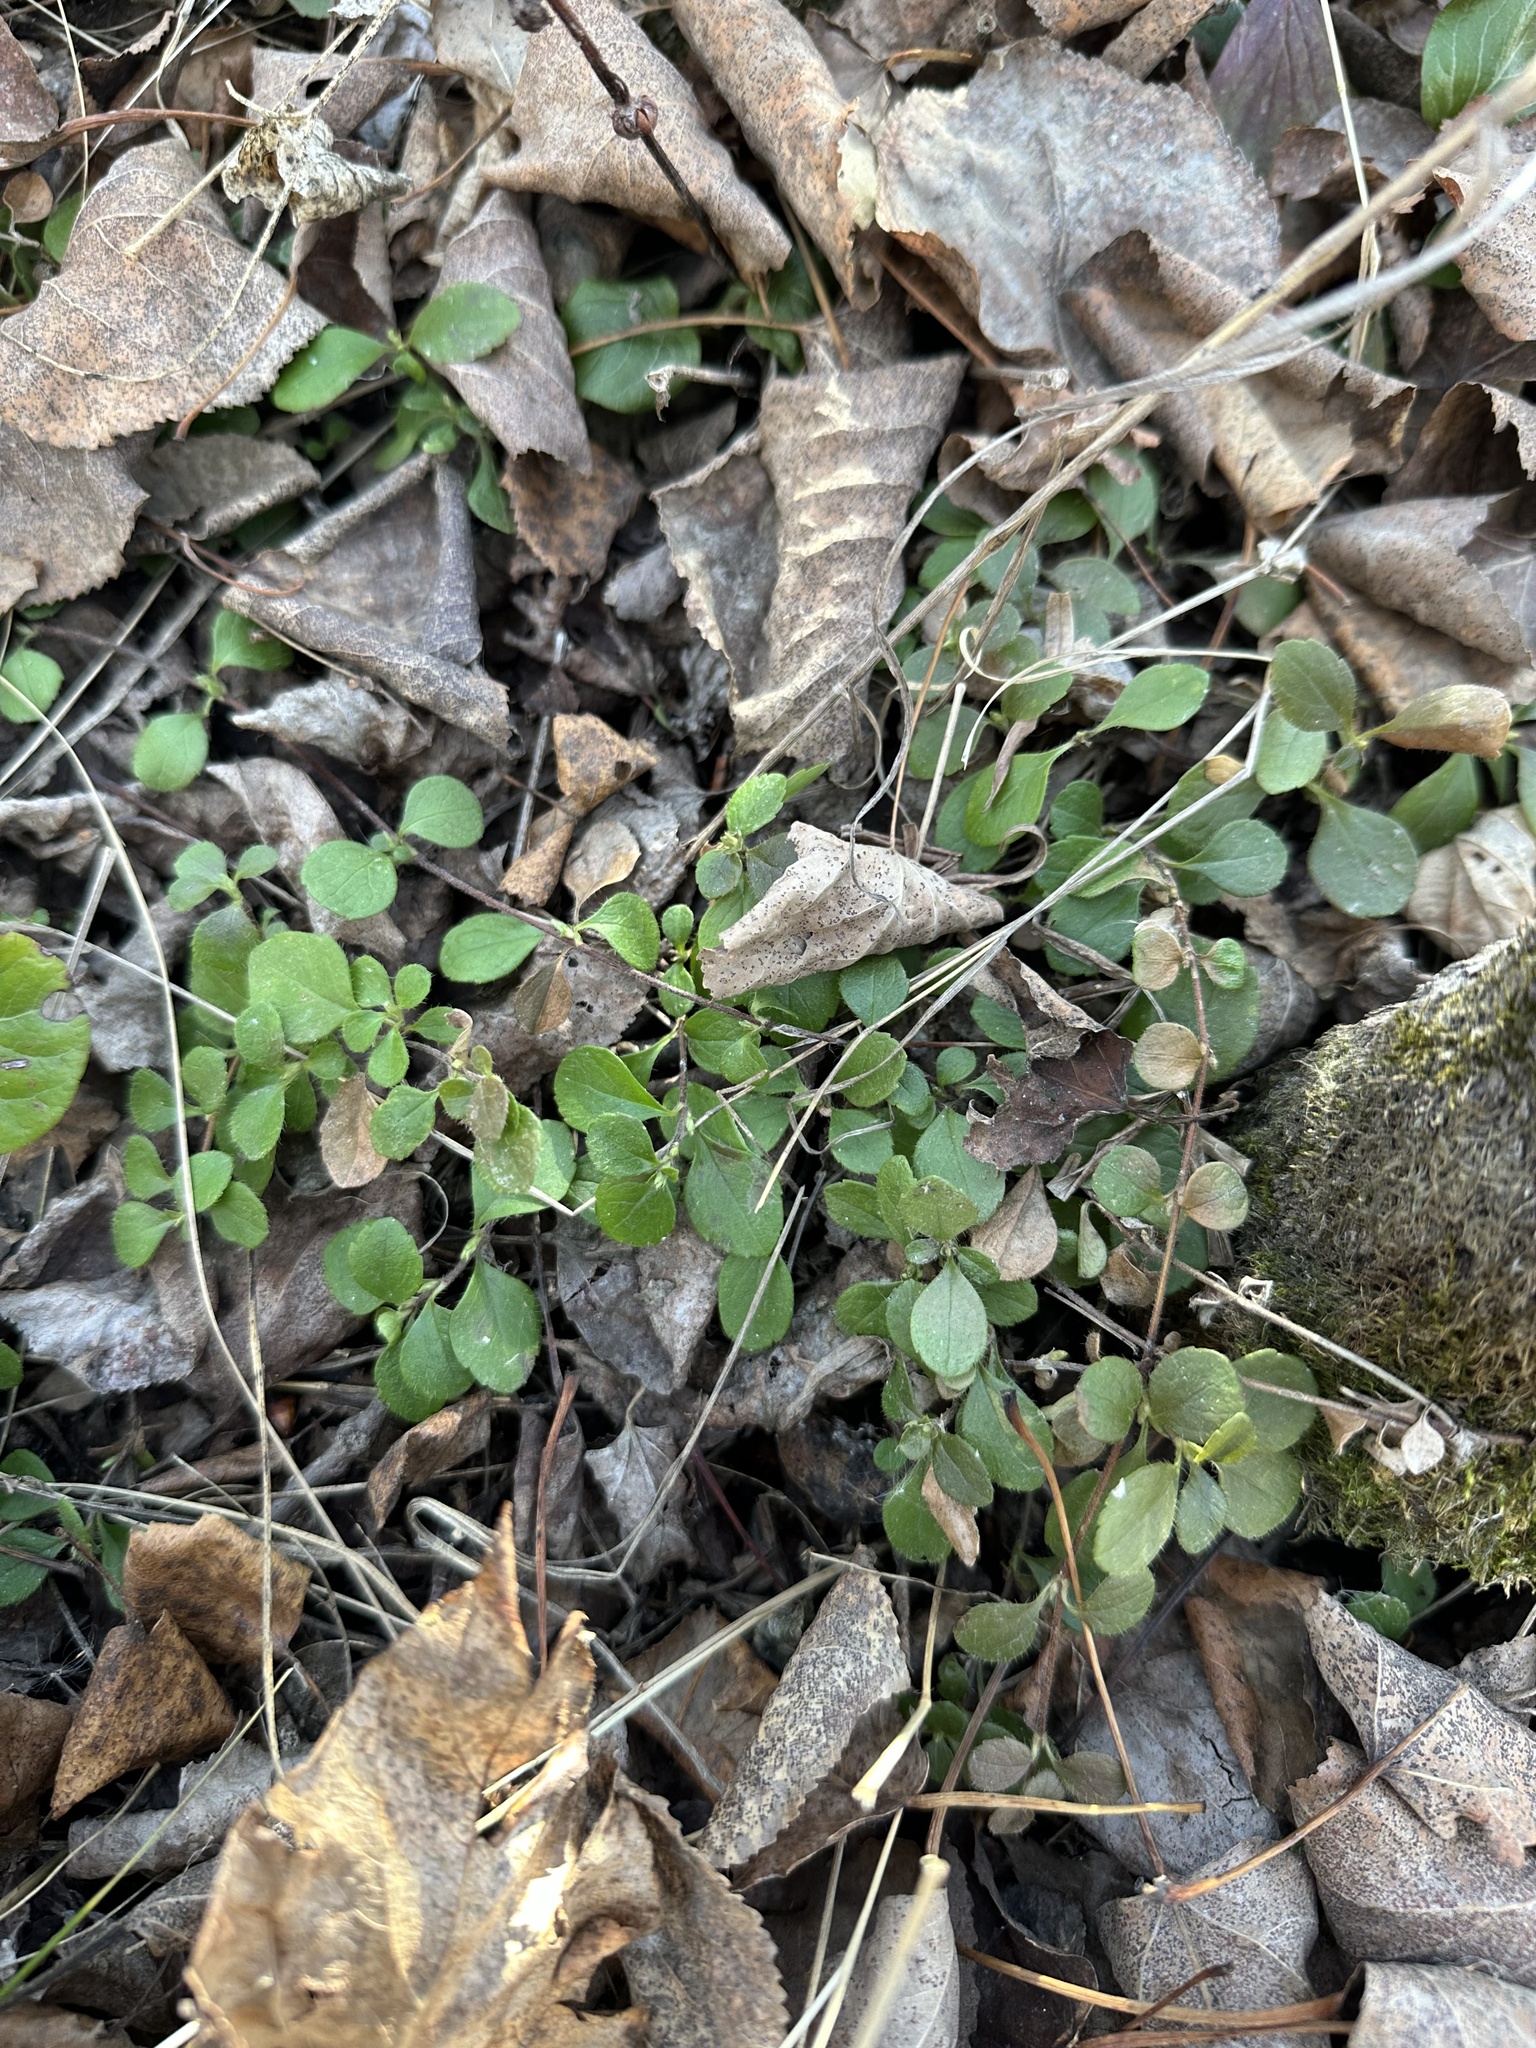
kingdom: Plantae
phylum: Tracheophyta
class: Magnoliopsida
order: Dipsacales
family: Caprifoliaceae
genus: Linnaea
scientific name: Linnaea borealis
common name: Twinflower
